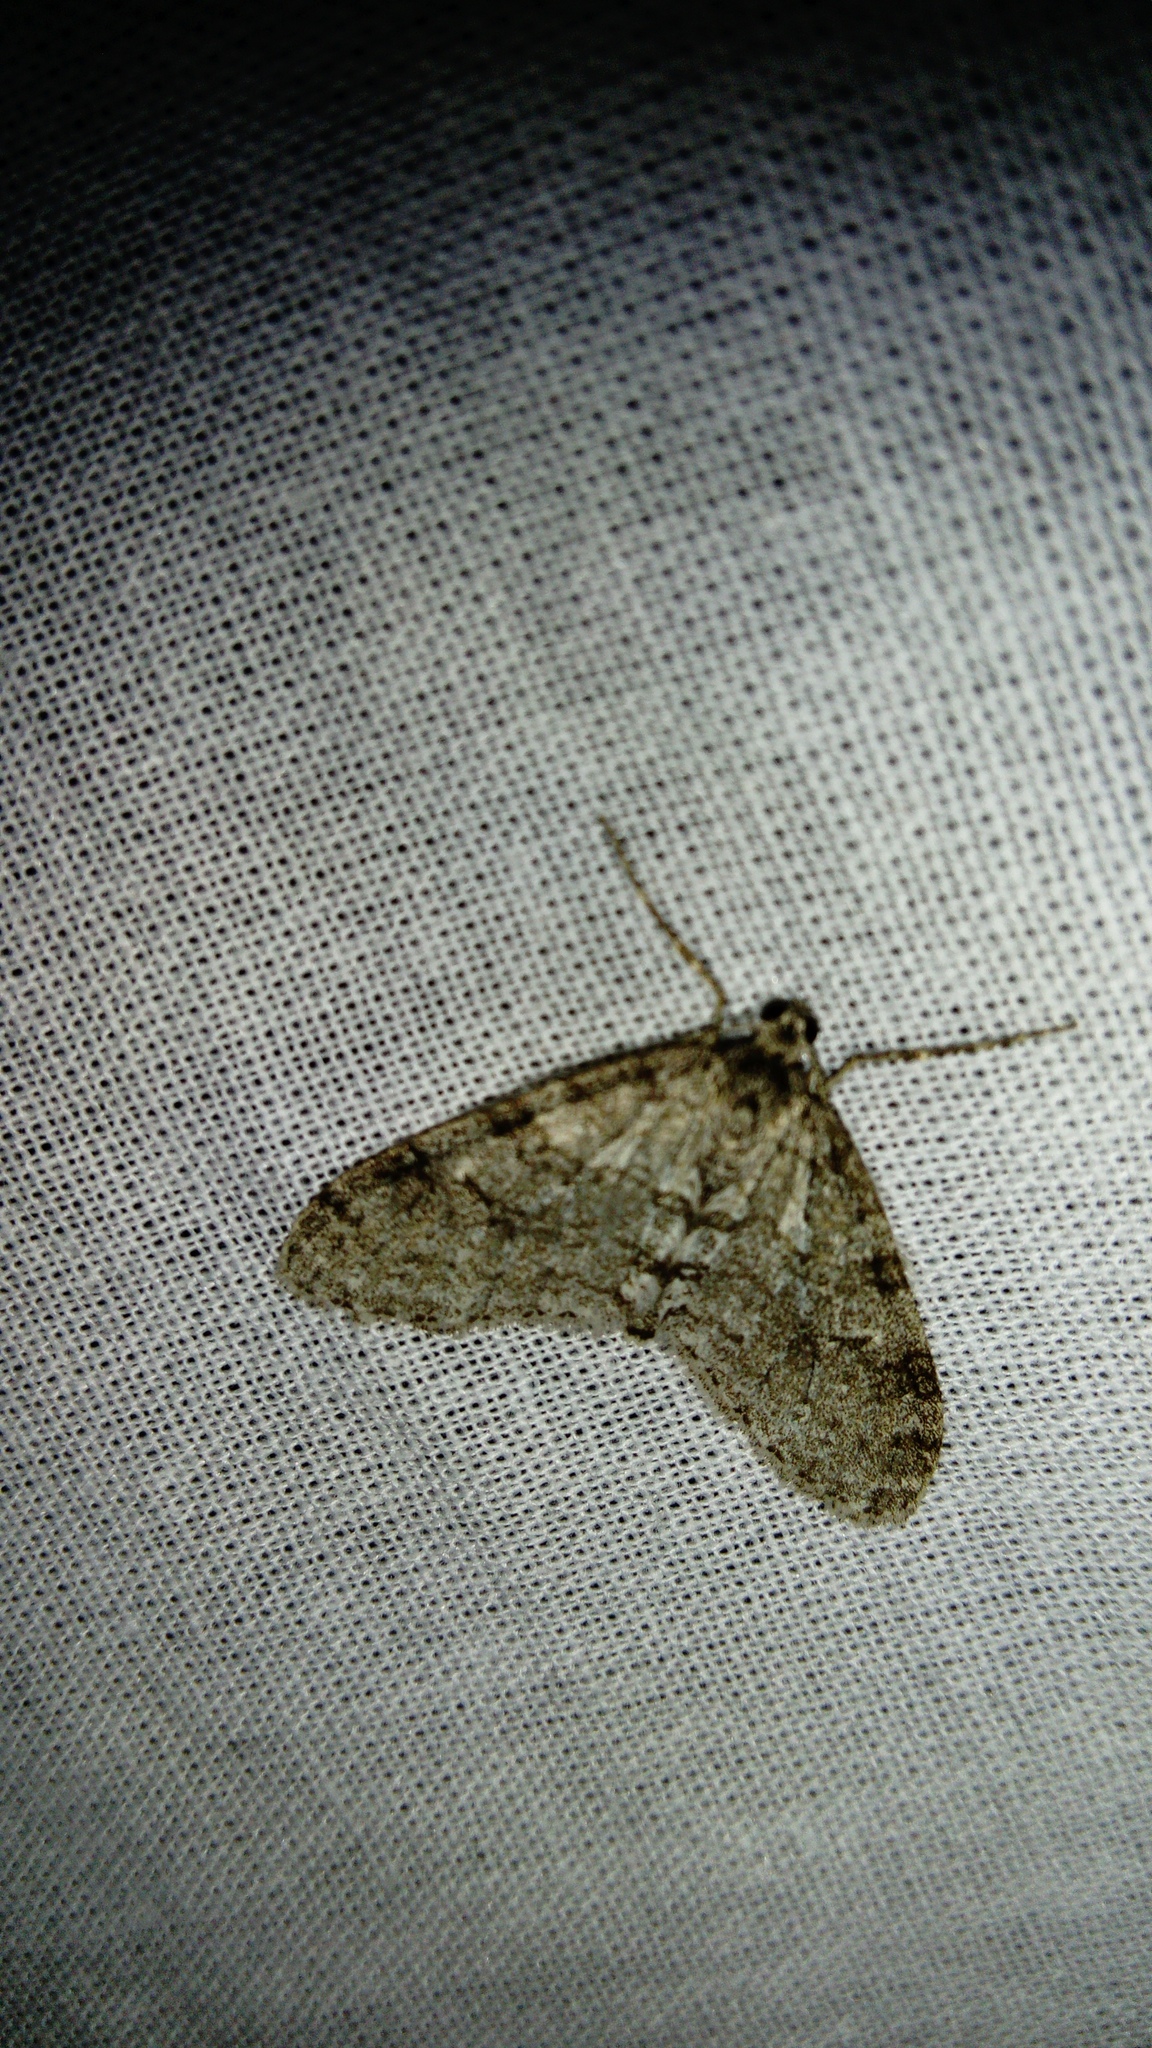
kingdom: Animalia
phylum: Arthropoda
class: Insecta
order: Lepidoptera
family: Geometridae
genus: Trichopteryx
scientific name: Trichopteryx carpinata
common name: Early tooth-striped
